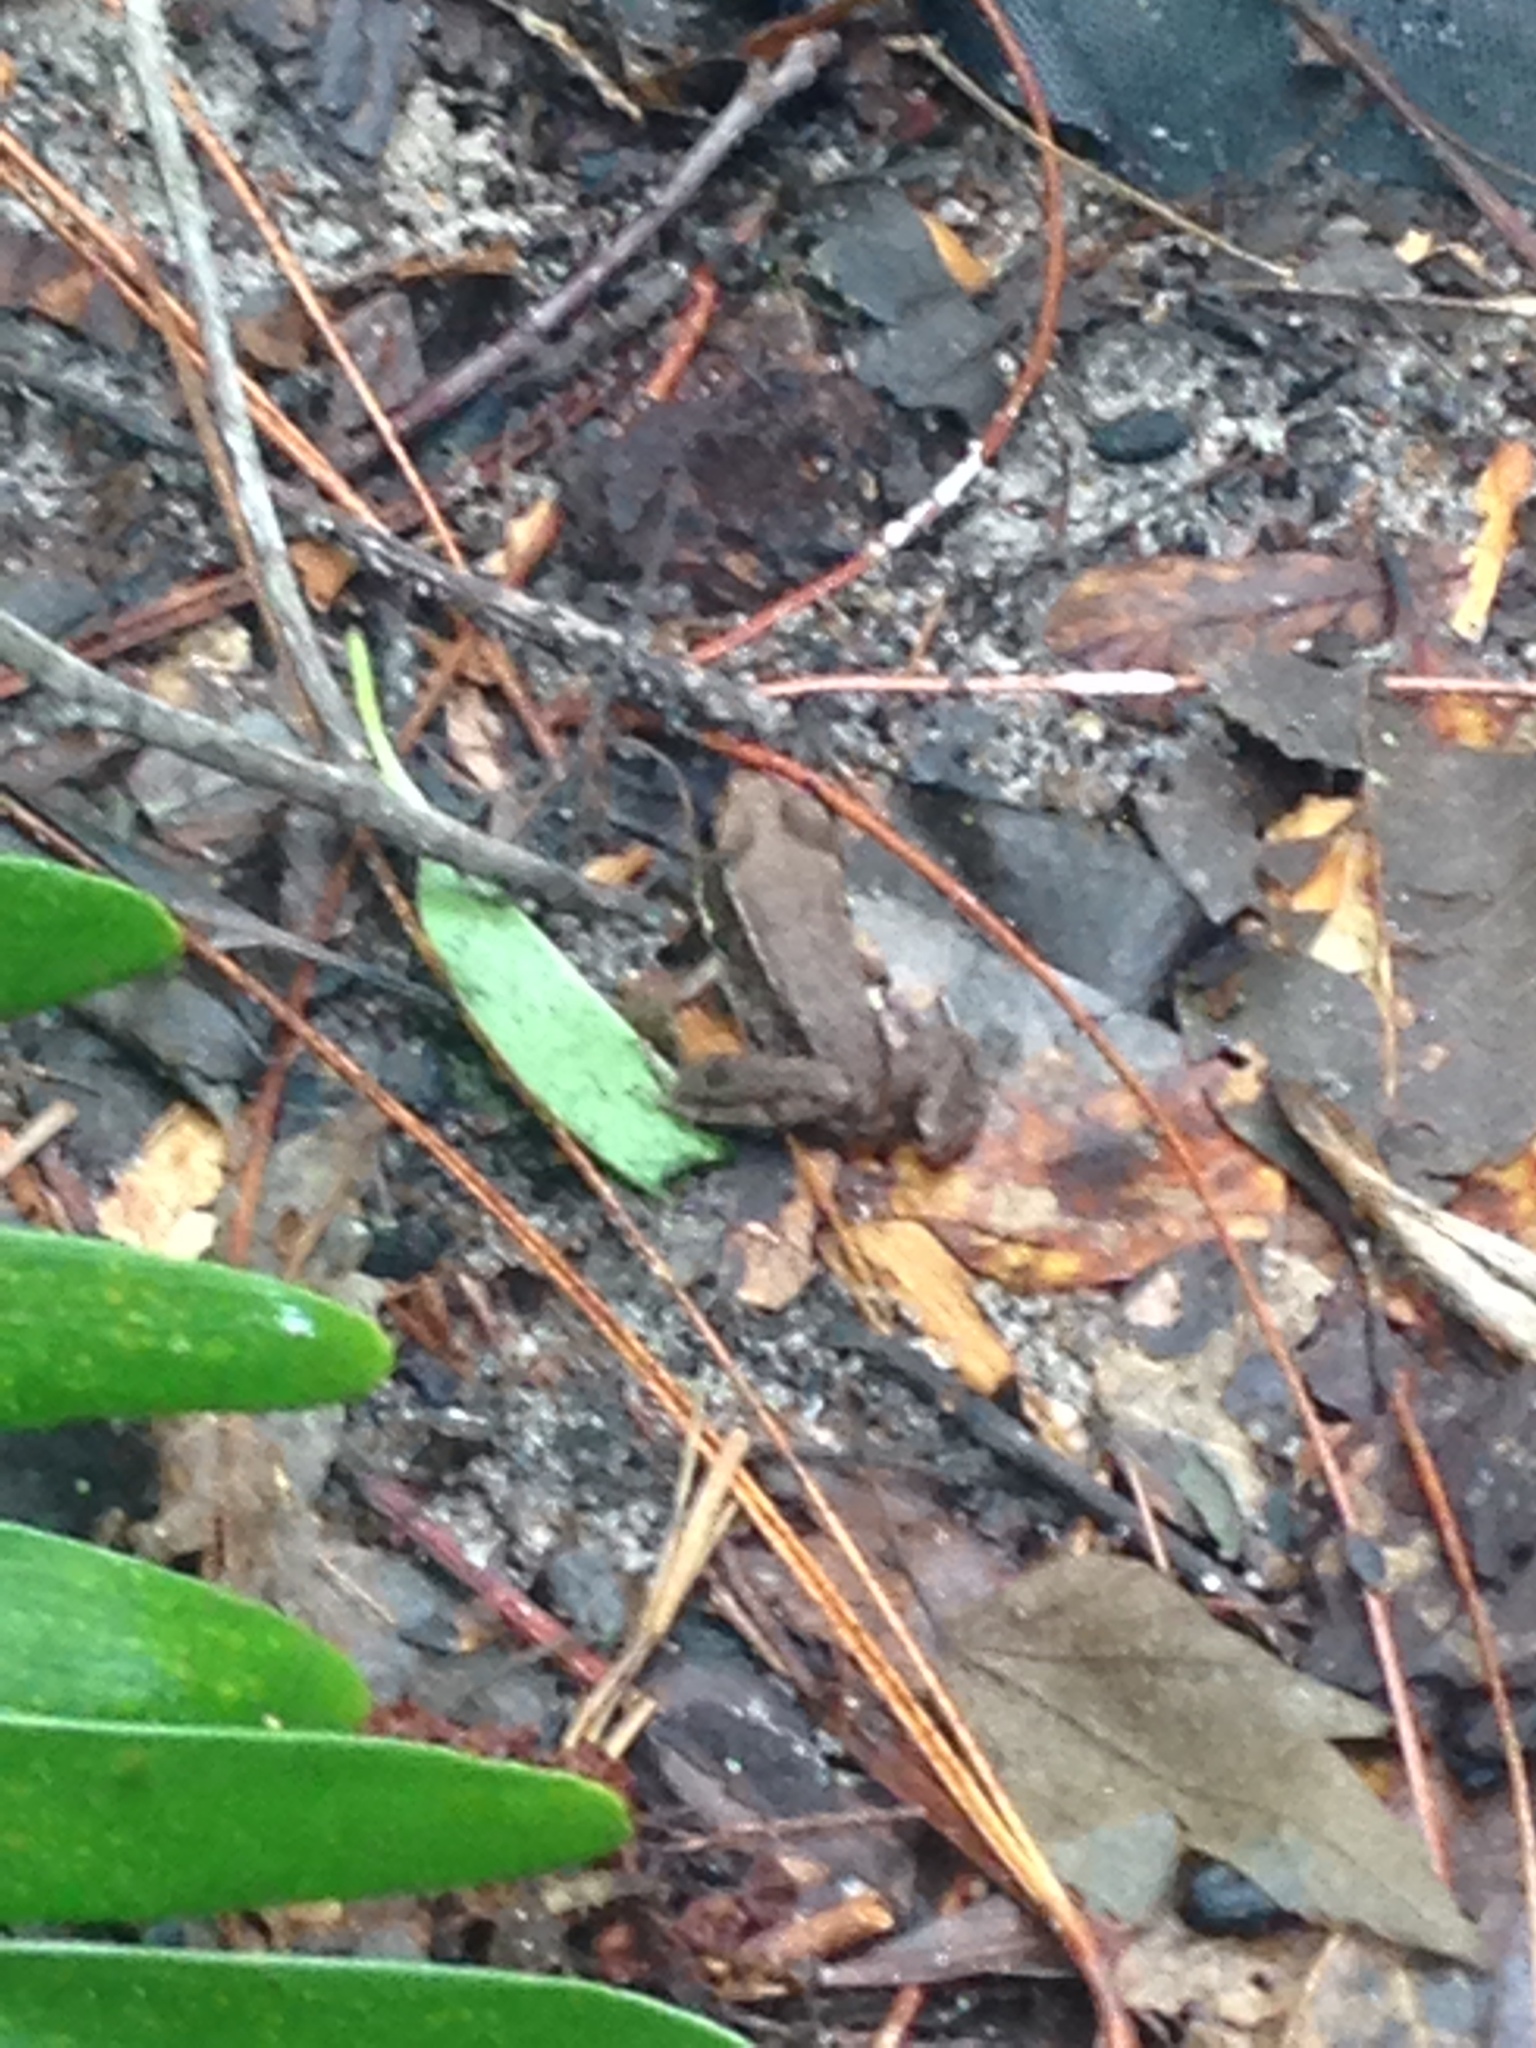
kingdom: Animalia
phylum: Chordata
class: Amphibia
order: Anura
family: Ranidae
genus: Lithobates
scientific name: Lithobates clamitans
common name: Green frog
